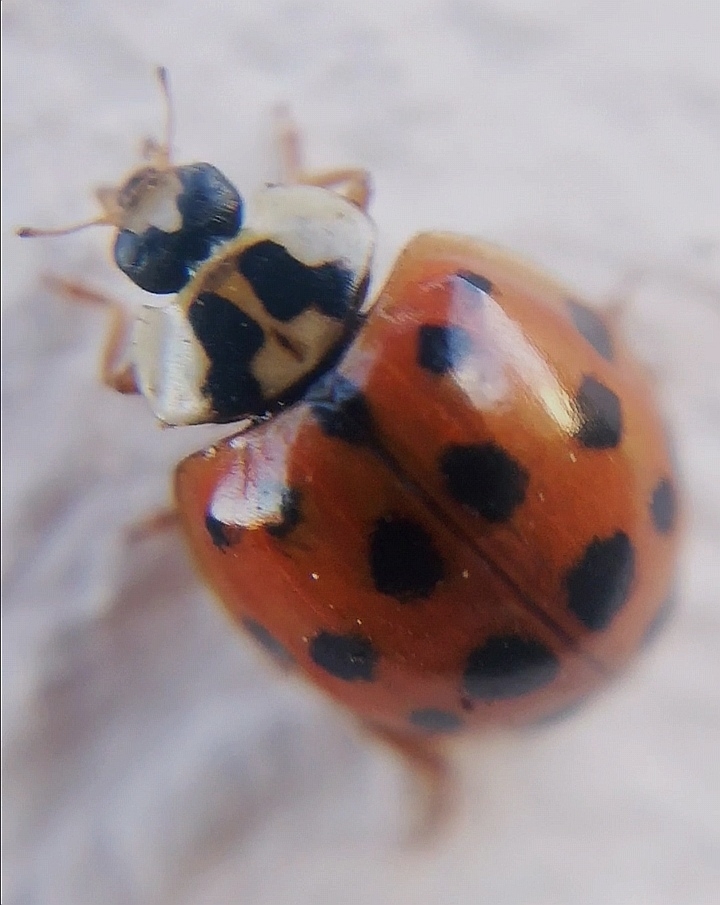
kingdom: Animalia
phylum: Arthropoda
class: Insecta
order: Coleoptera
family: Coccinellidae
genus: Harmonia
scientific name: Harmonia axyridis
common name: Harlequin ladybird
